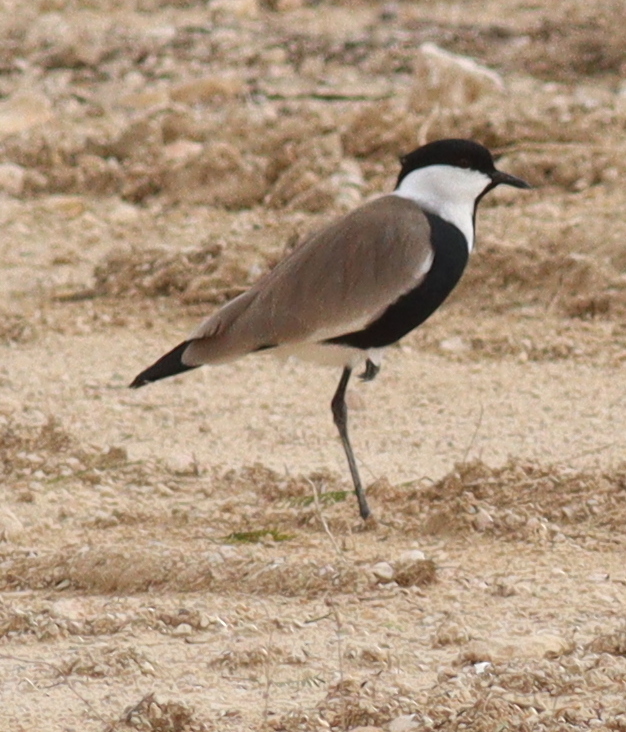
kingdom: Animalia
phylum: Chordata
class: Aves
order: Charadriiformes
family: Charadriidae
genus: Vanellus
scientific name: Vanellus spinosus
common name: Spur-winged lapwing
